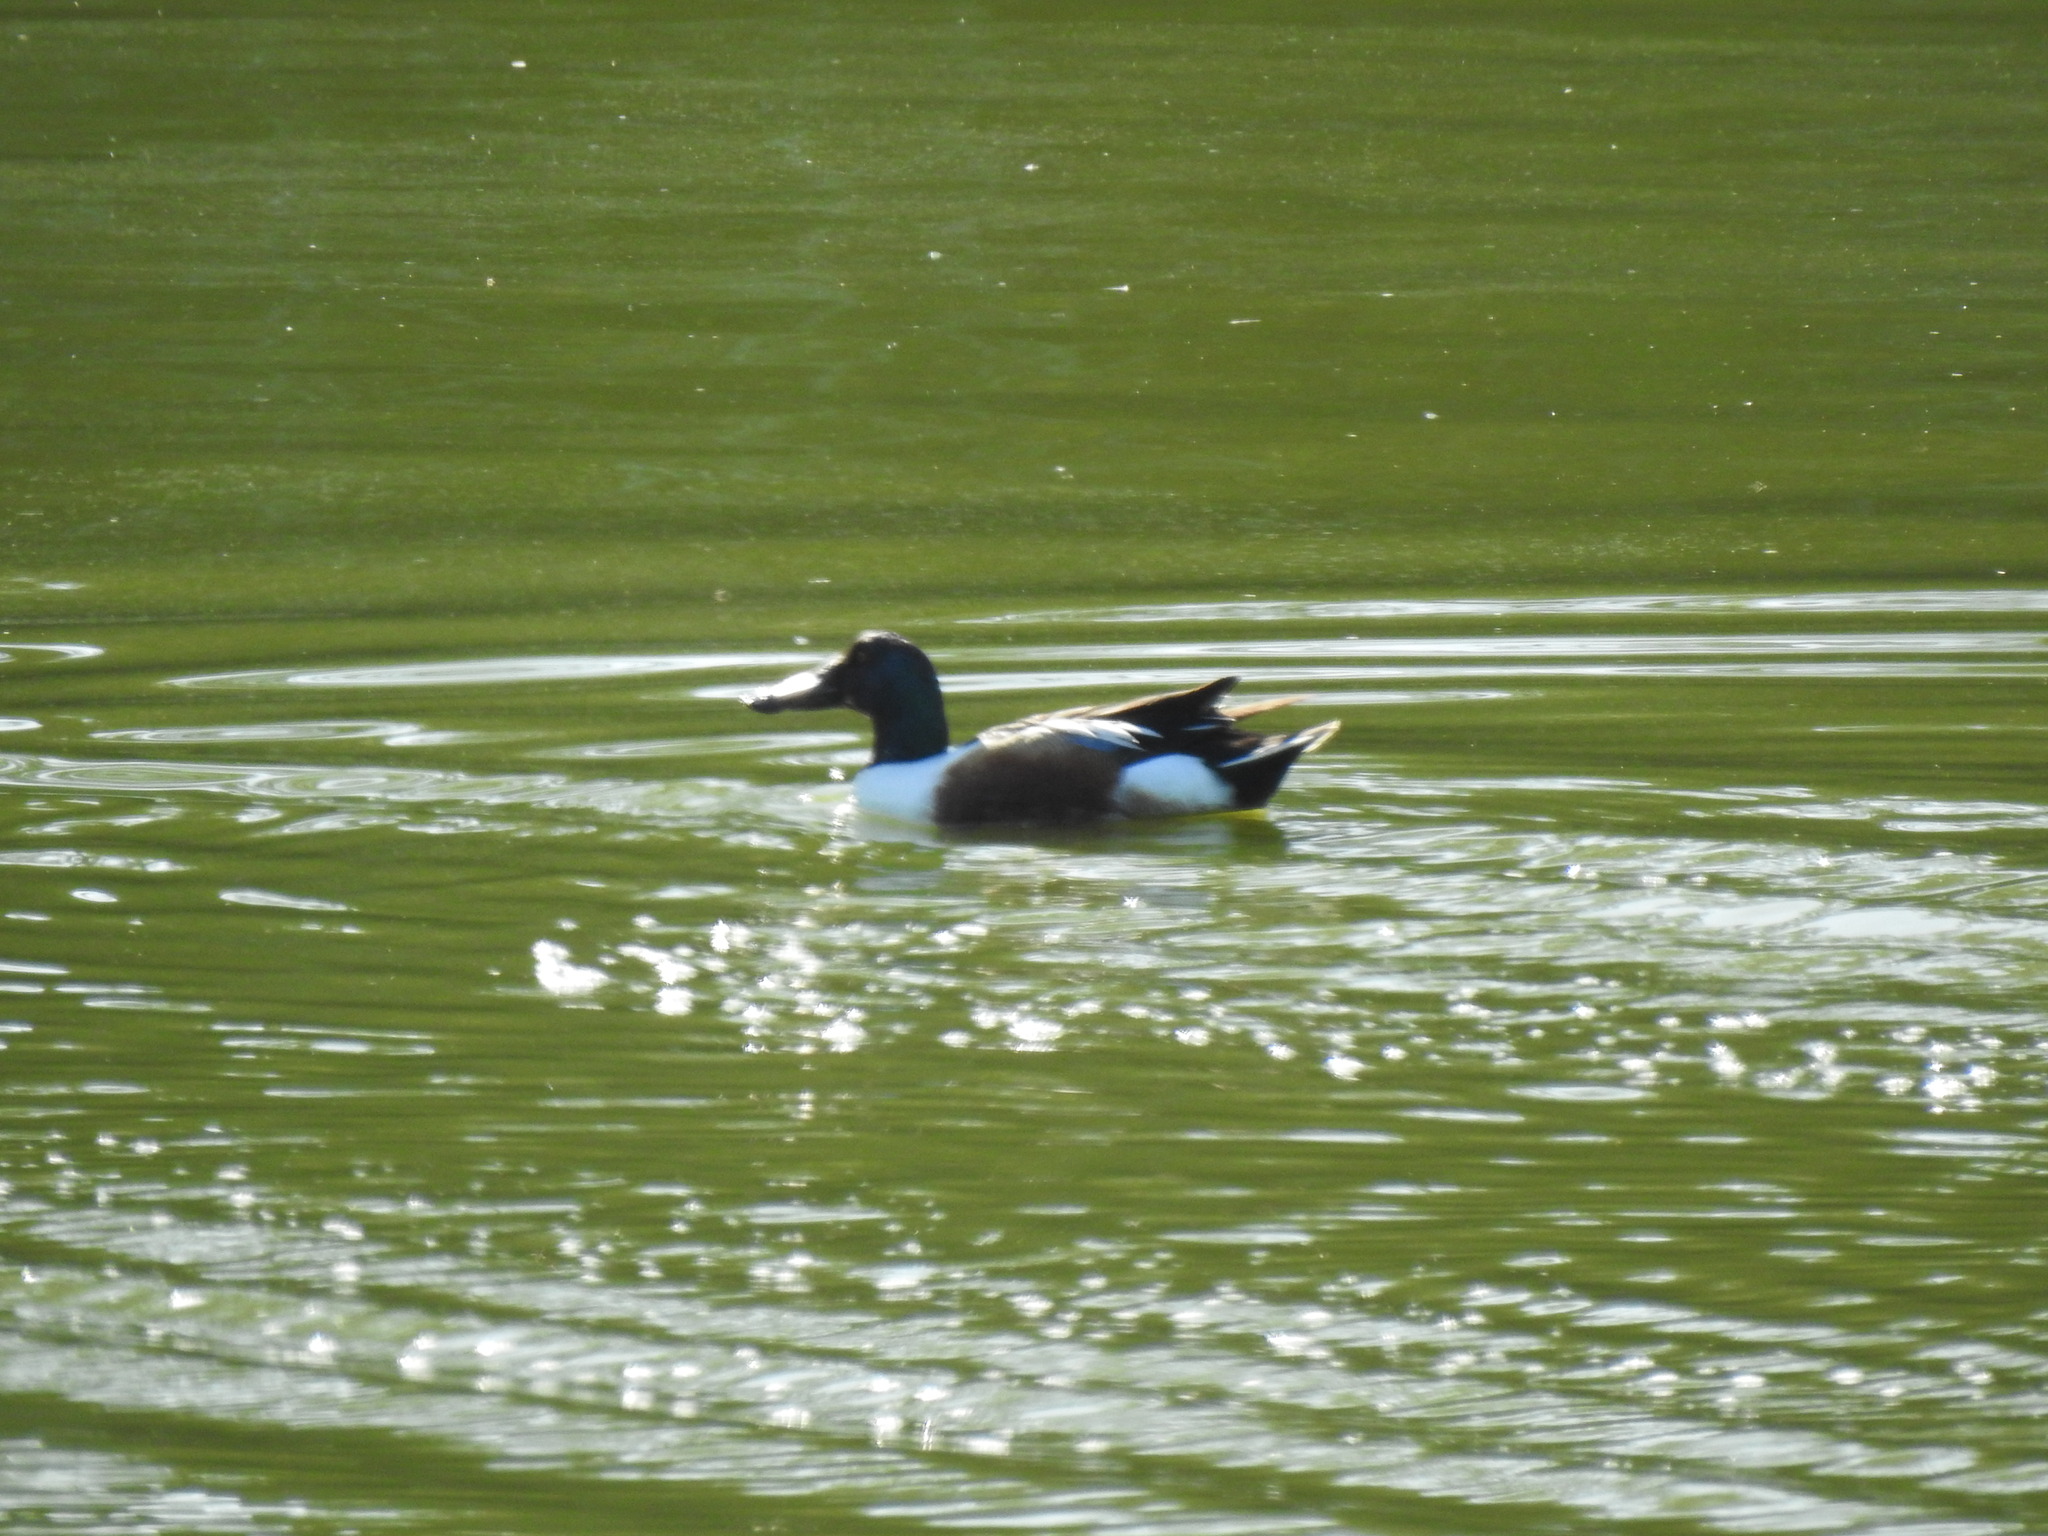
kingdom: Animalia
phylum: Chordata
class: Aves
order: Anseriformes
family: Anatidae
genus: Spatula
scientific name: Spatula clypeata
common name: Northern shoveler
